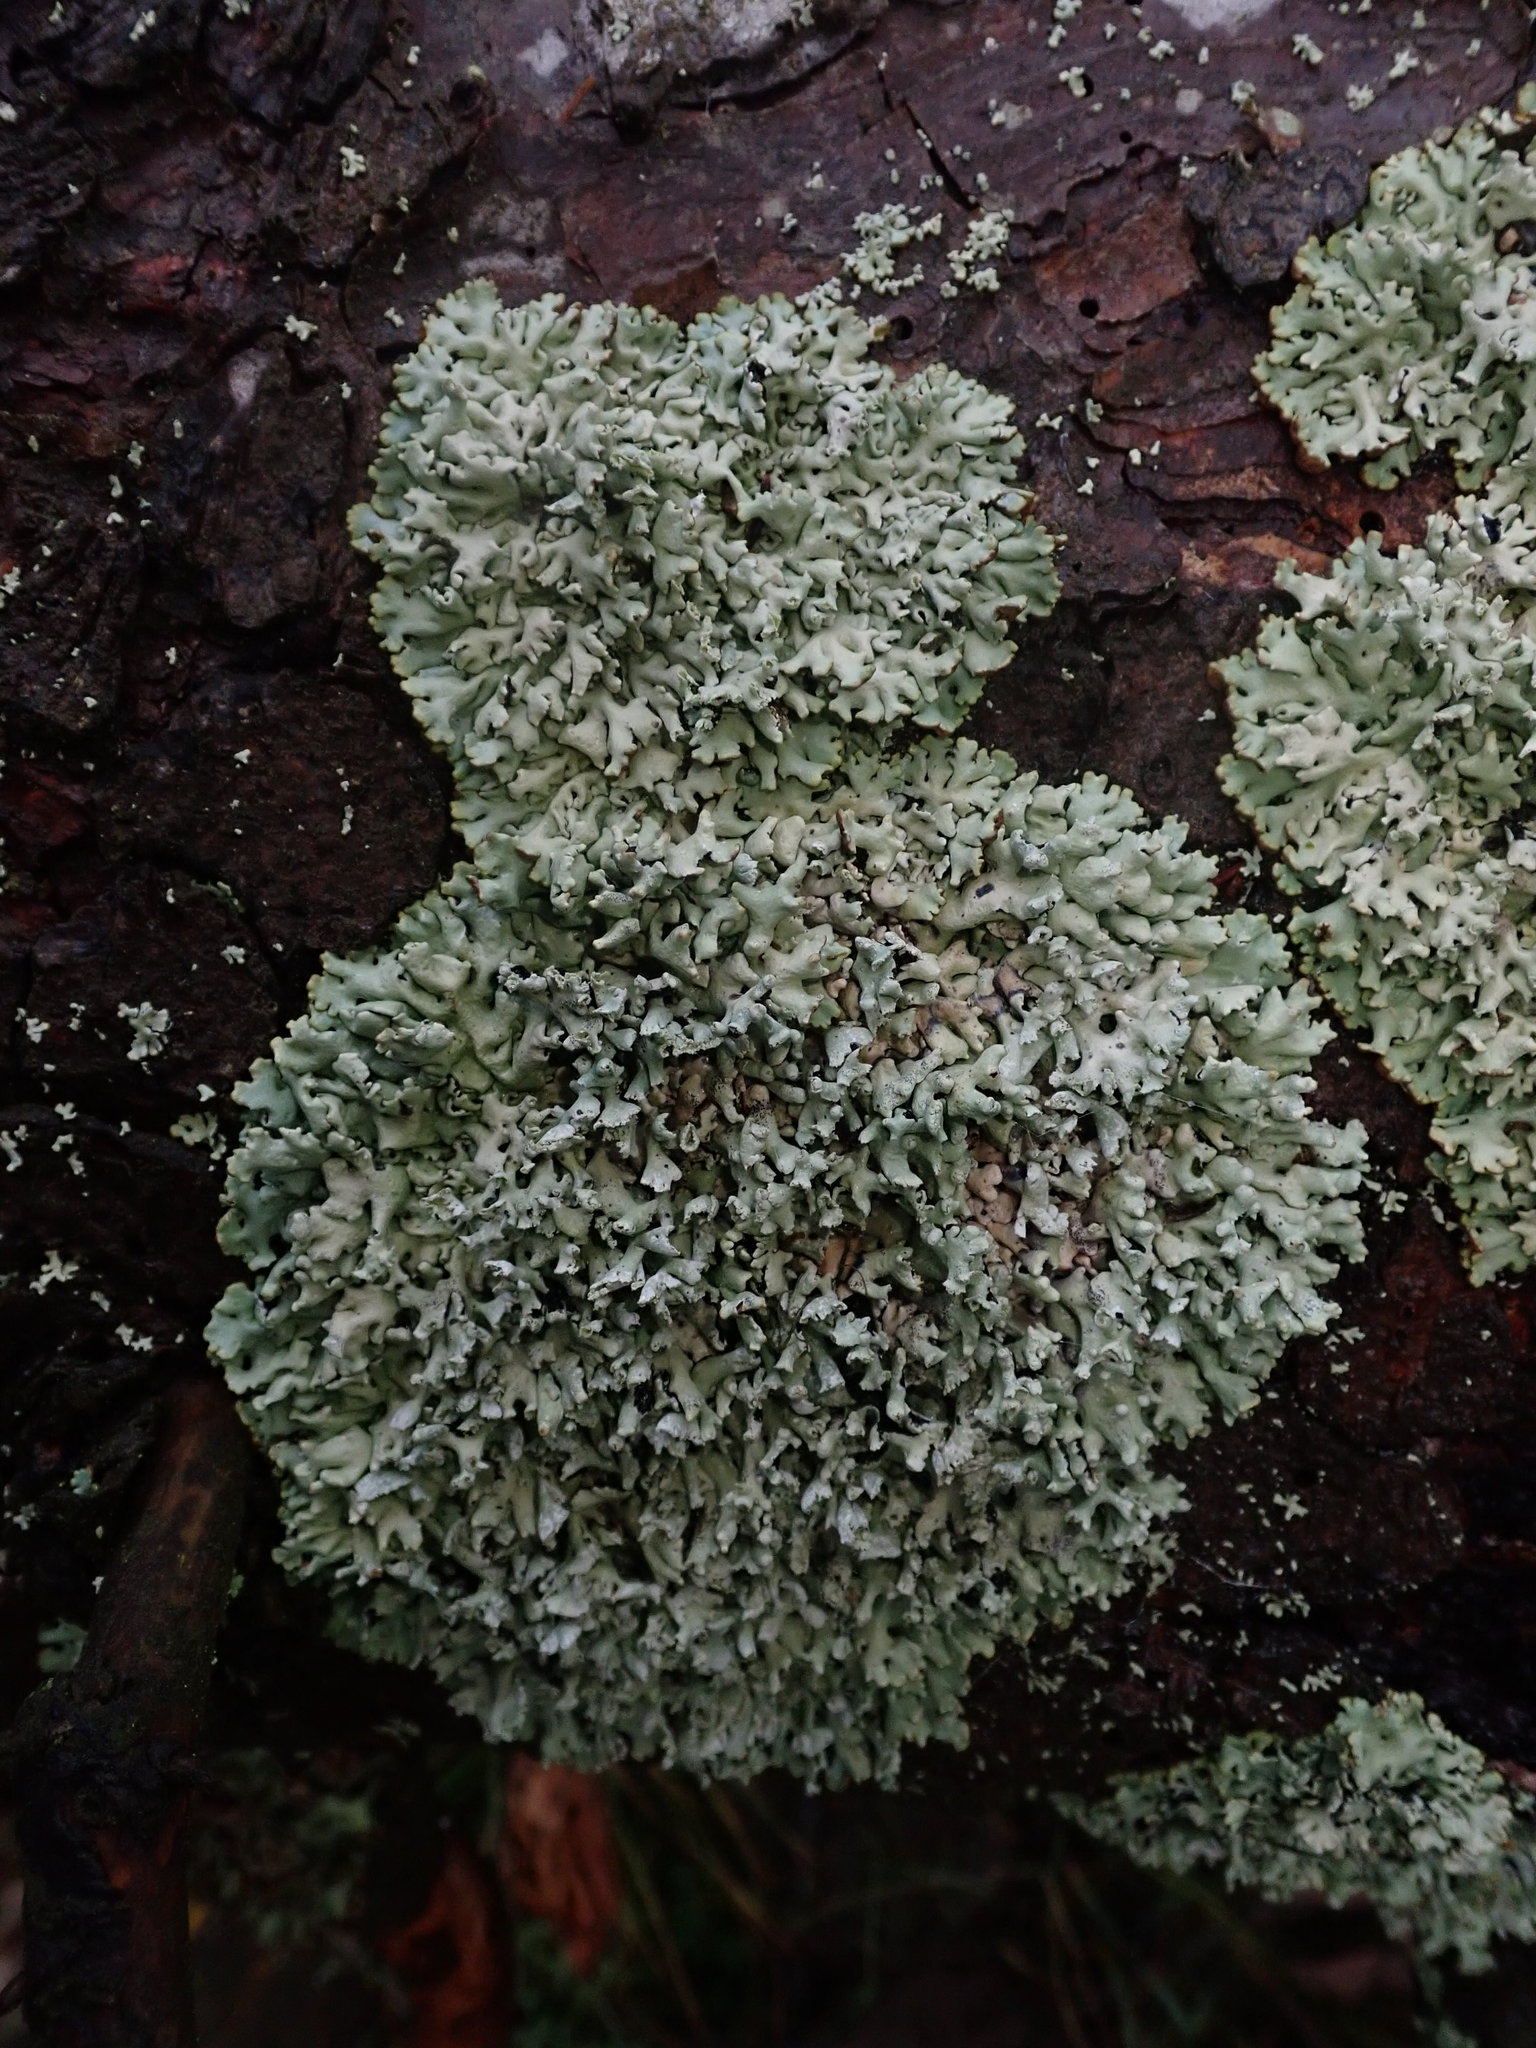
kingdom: Fungi
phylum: Ascomycota
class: Lecanoromycetes
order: Lecanorales
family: Parmeliaceae
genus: Hypogymnia
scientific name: Hypogymnia physodes
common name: Dark crottle
